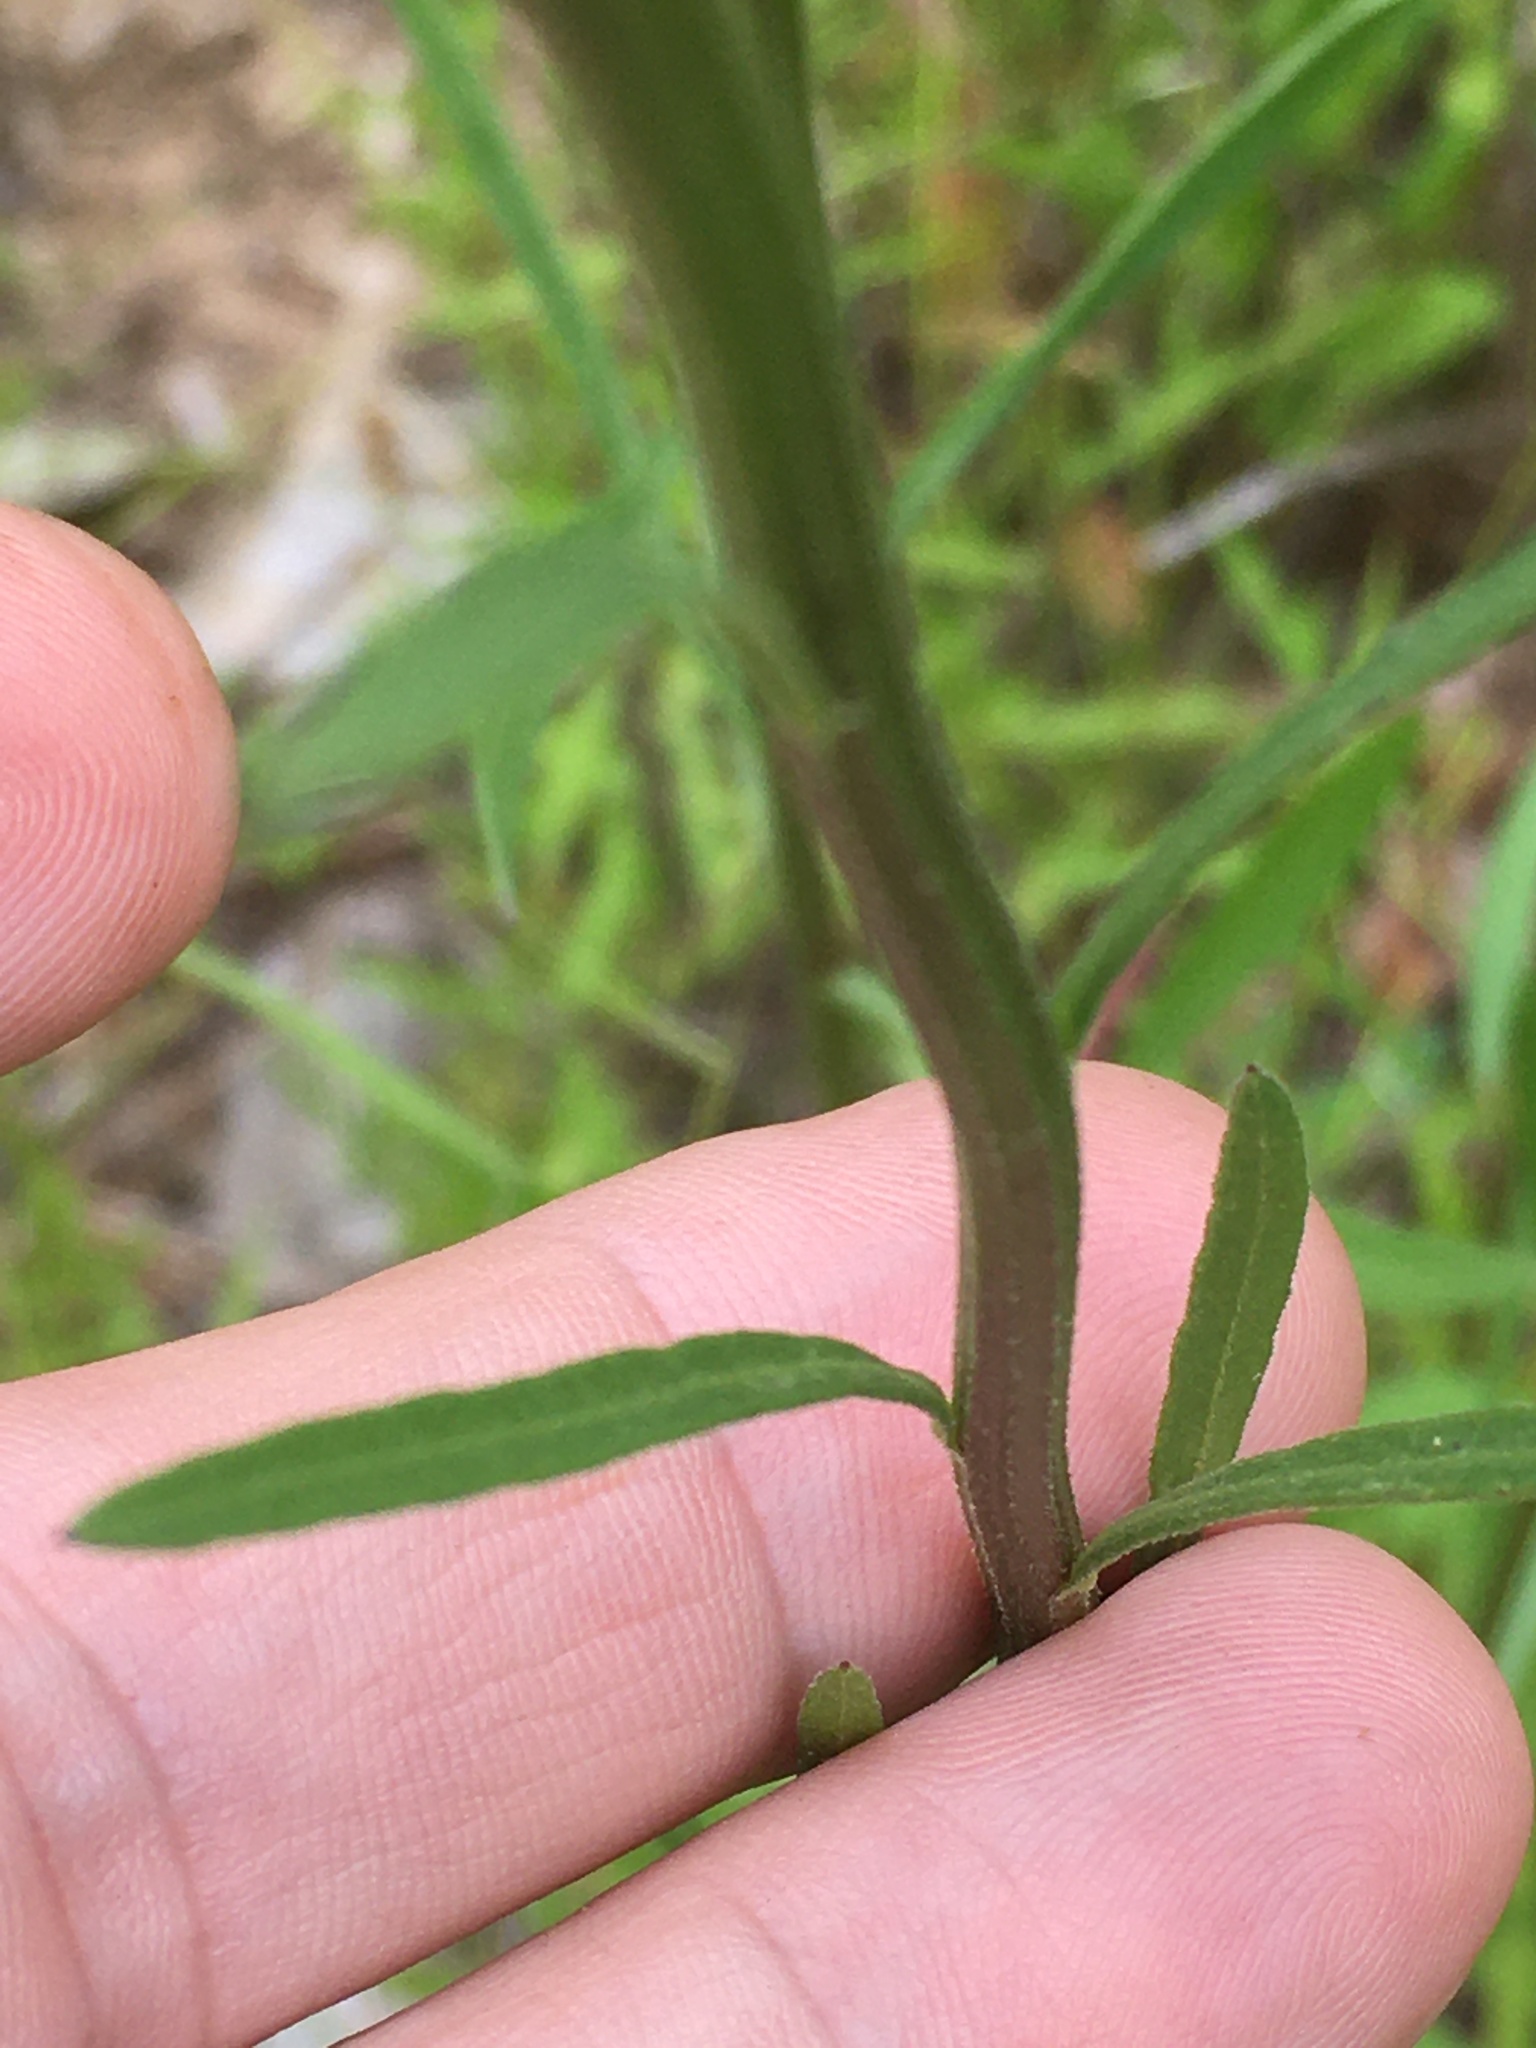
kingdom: Plantae
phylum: Tracheophyta
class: Magnoliopsida
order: Asterales
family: Asteraceae
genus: Erigeron
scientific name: Erigeron strigosus
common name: Common eastern fleabane
